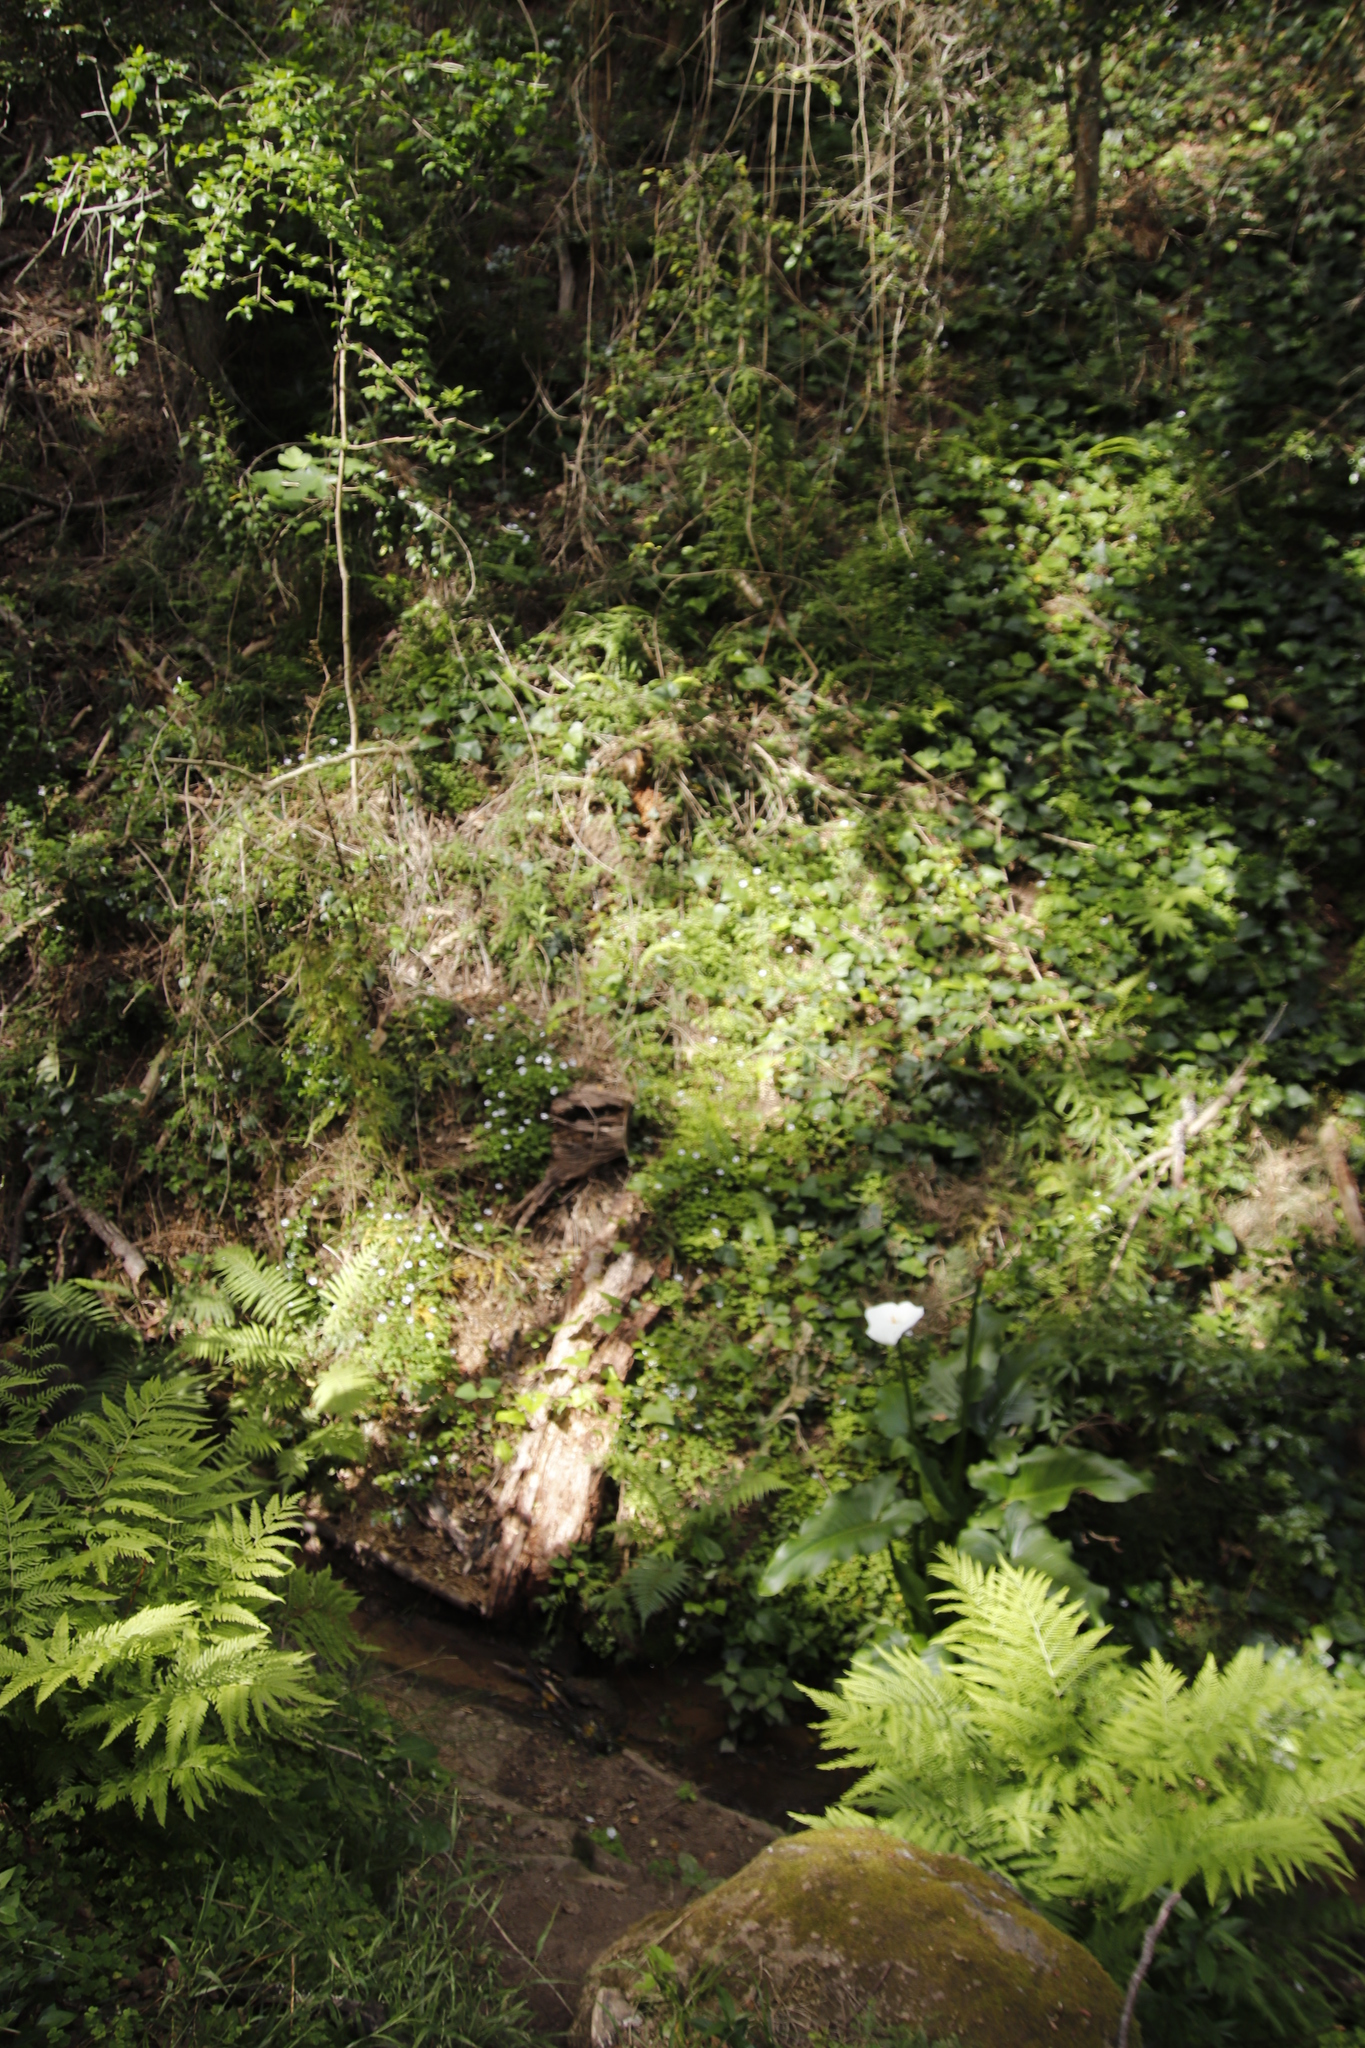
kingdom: Plantae
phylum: Tracheophyta
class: Magnoliopsida
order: Oxalidales
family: Oxalidaceae
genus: Oxalis
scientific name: Oxalis incarnata
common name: Pale pink-sorrel
